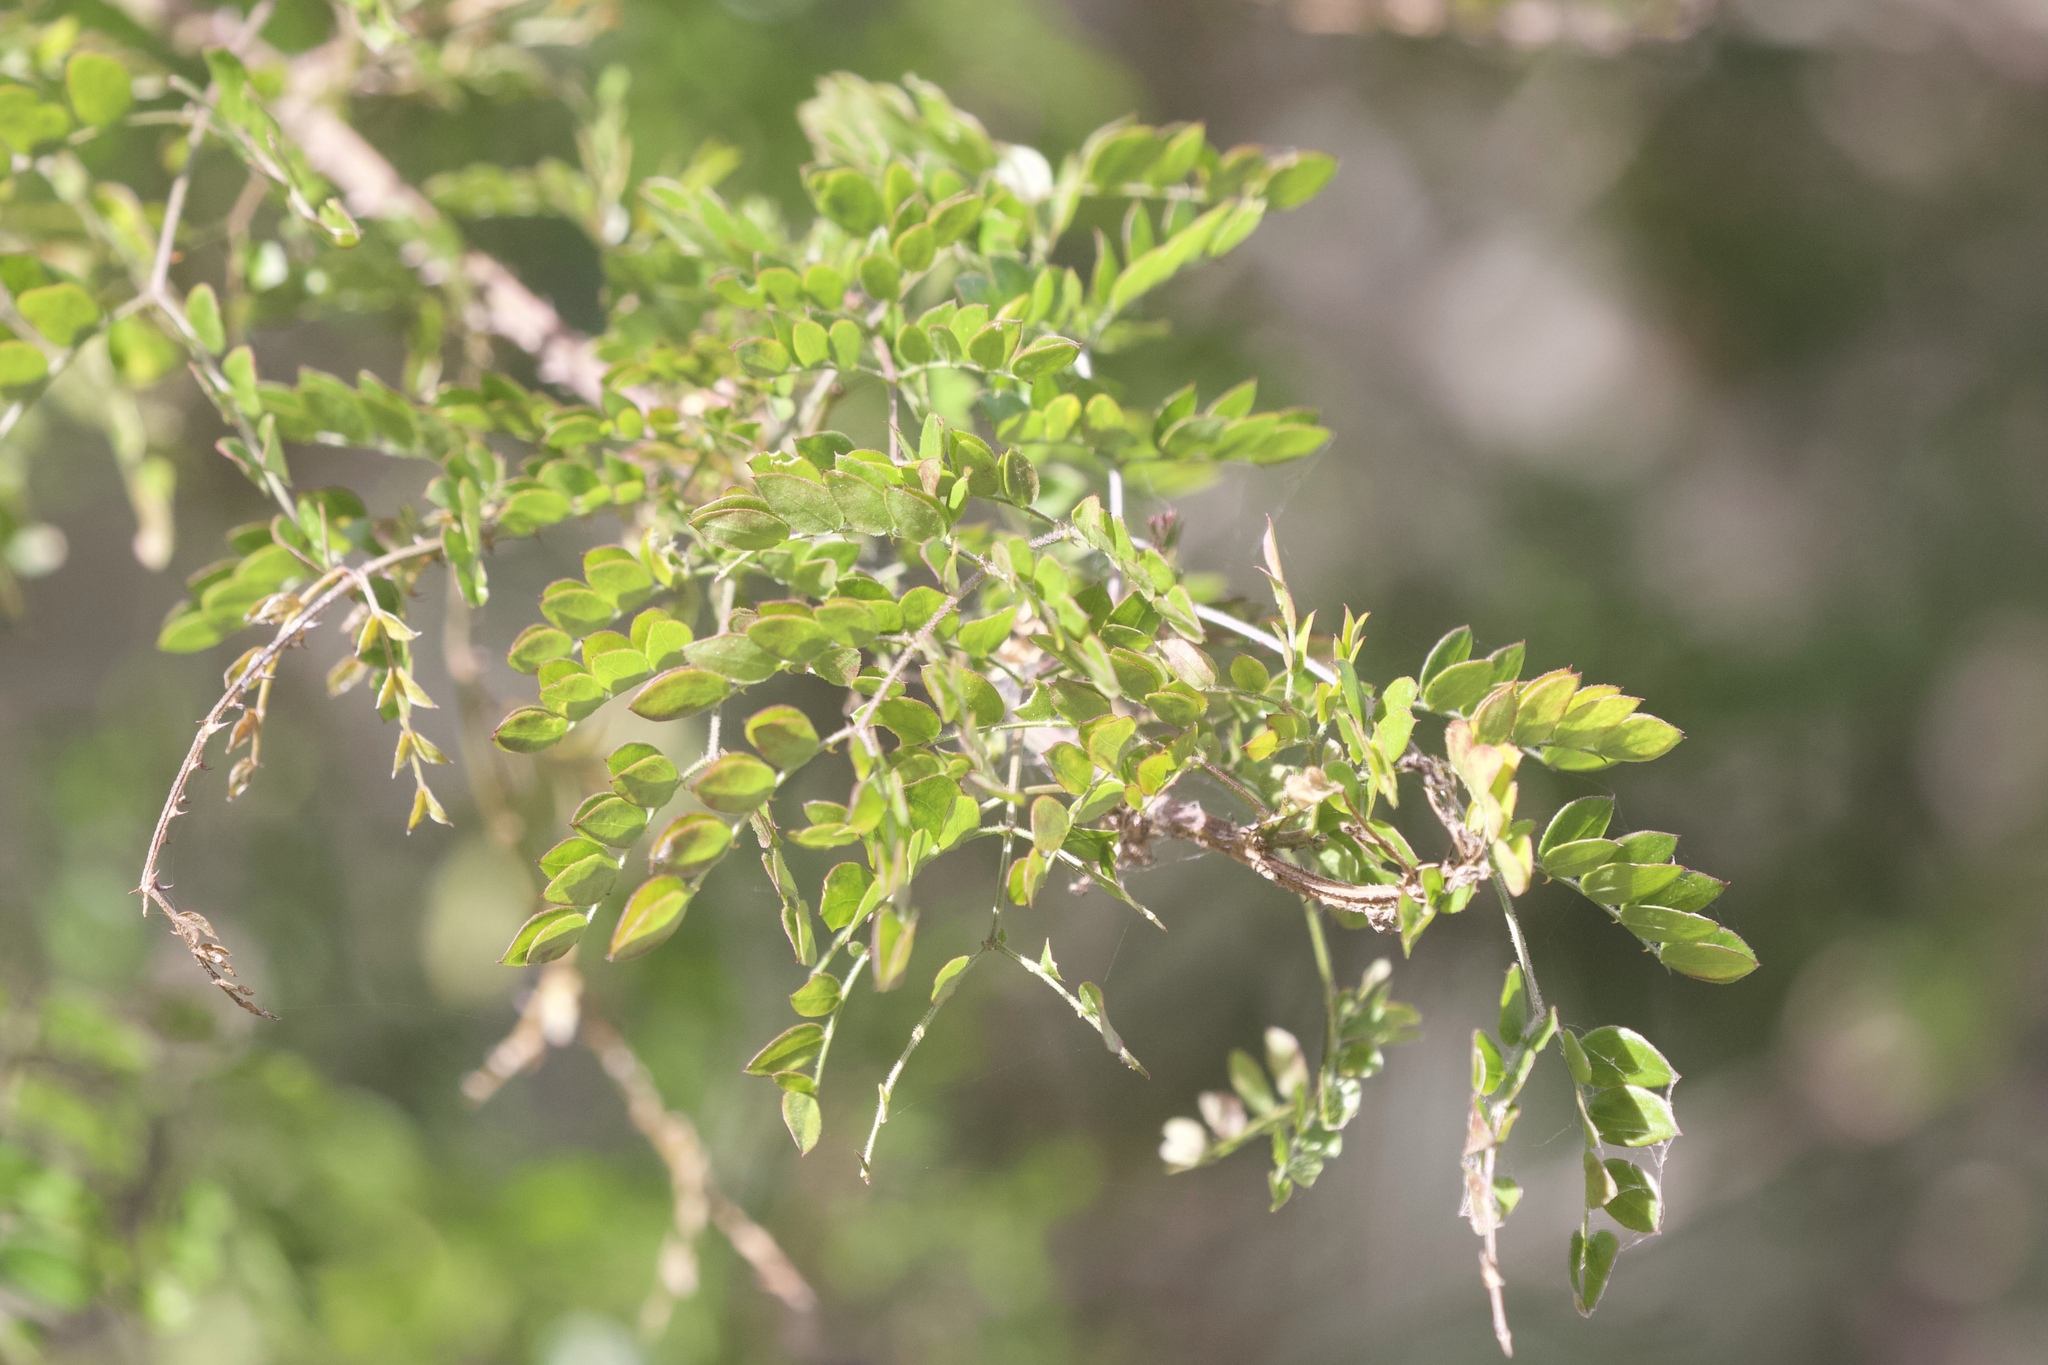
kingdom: Plantae
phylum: Tracheophyta
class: Magnoliopsida
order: Fabales
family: Fabaceae
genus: Mimosa
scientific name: Mimosa malacophylla
